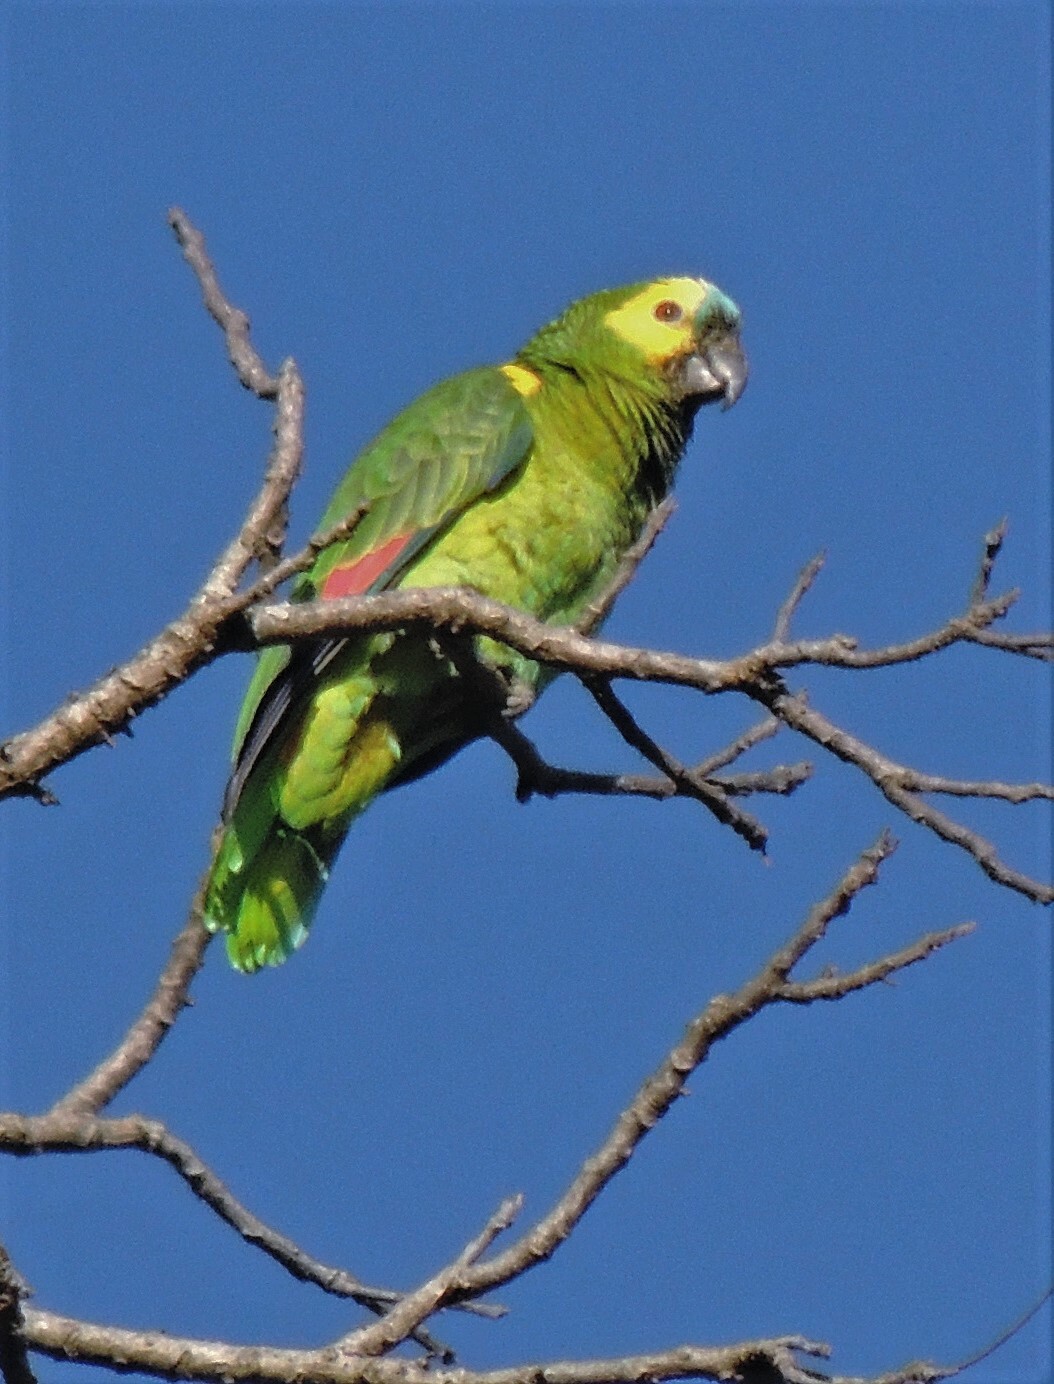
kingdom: Animalia
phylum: Chordata
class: Aves
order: Psittaciformes
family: Psittacidae
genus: Amazona
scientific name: Amazona aestiva
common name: Turquoise-fronted amazon
